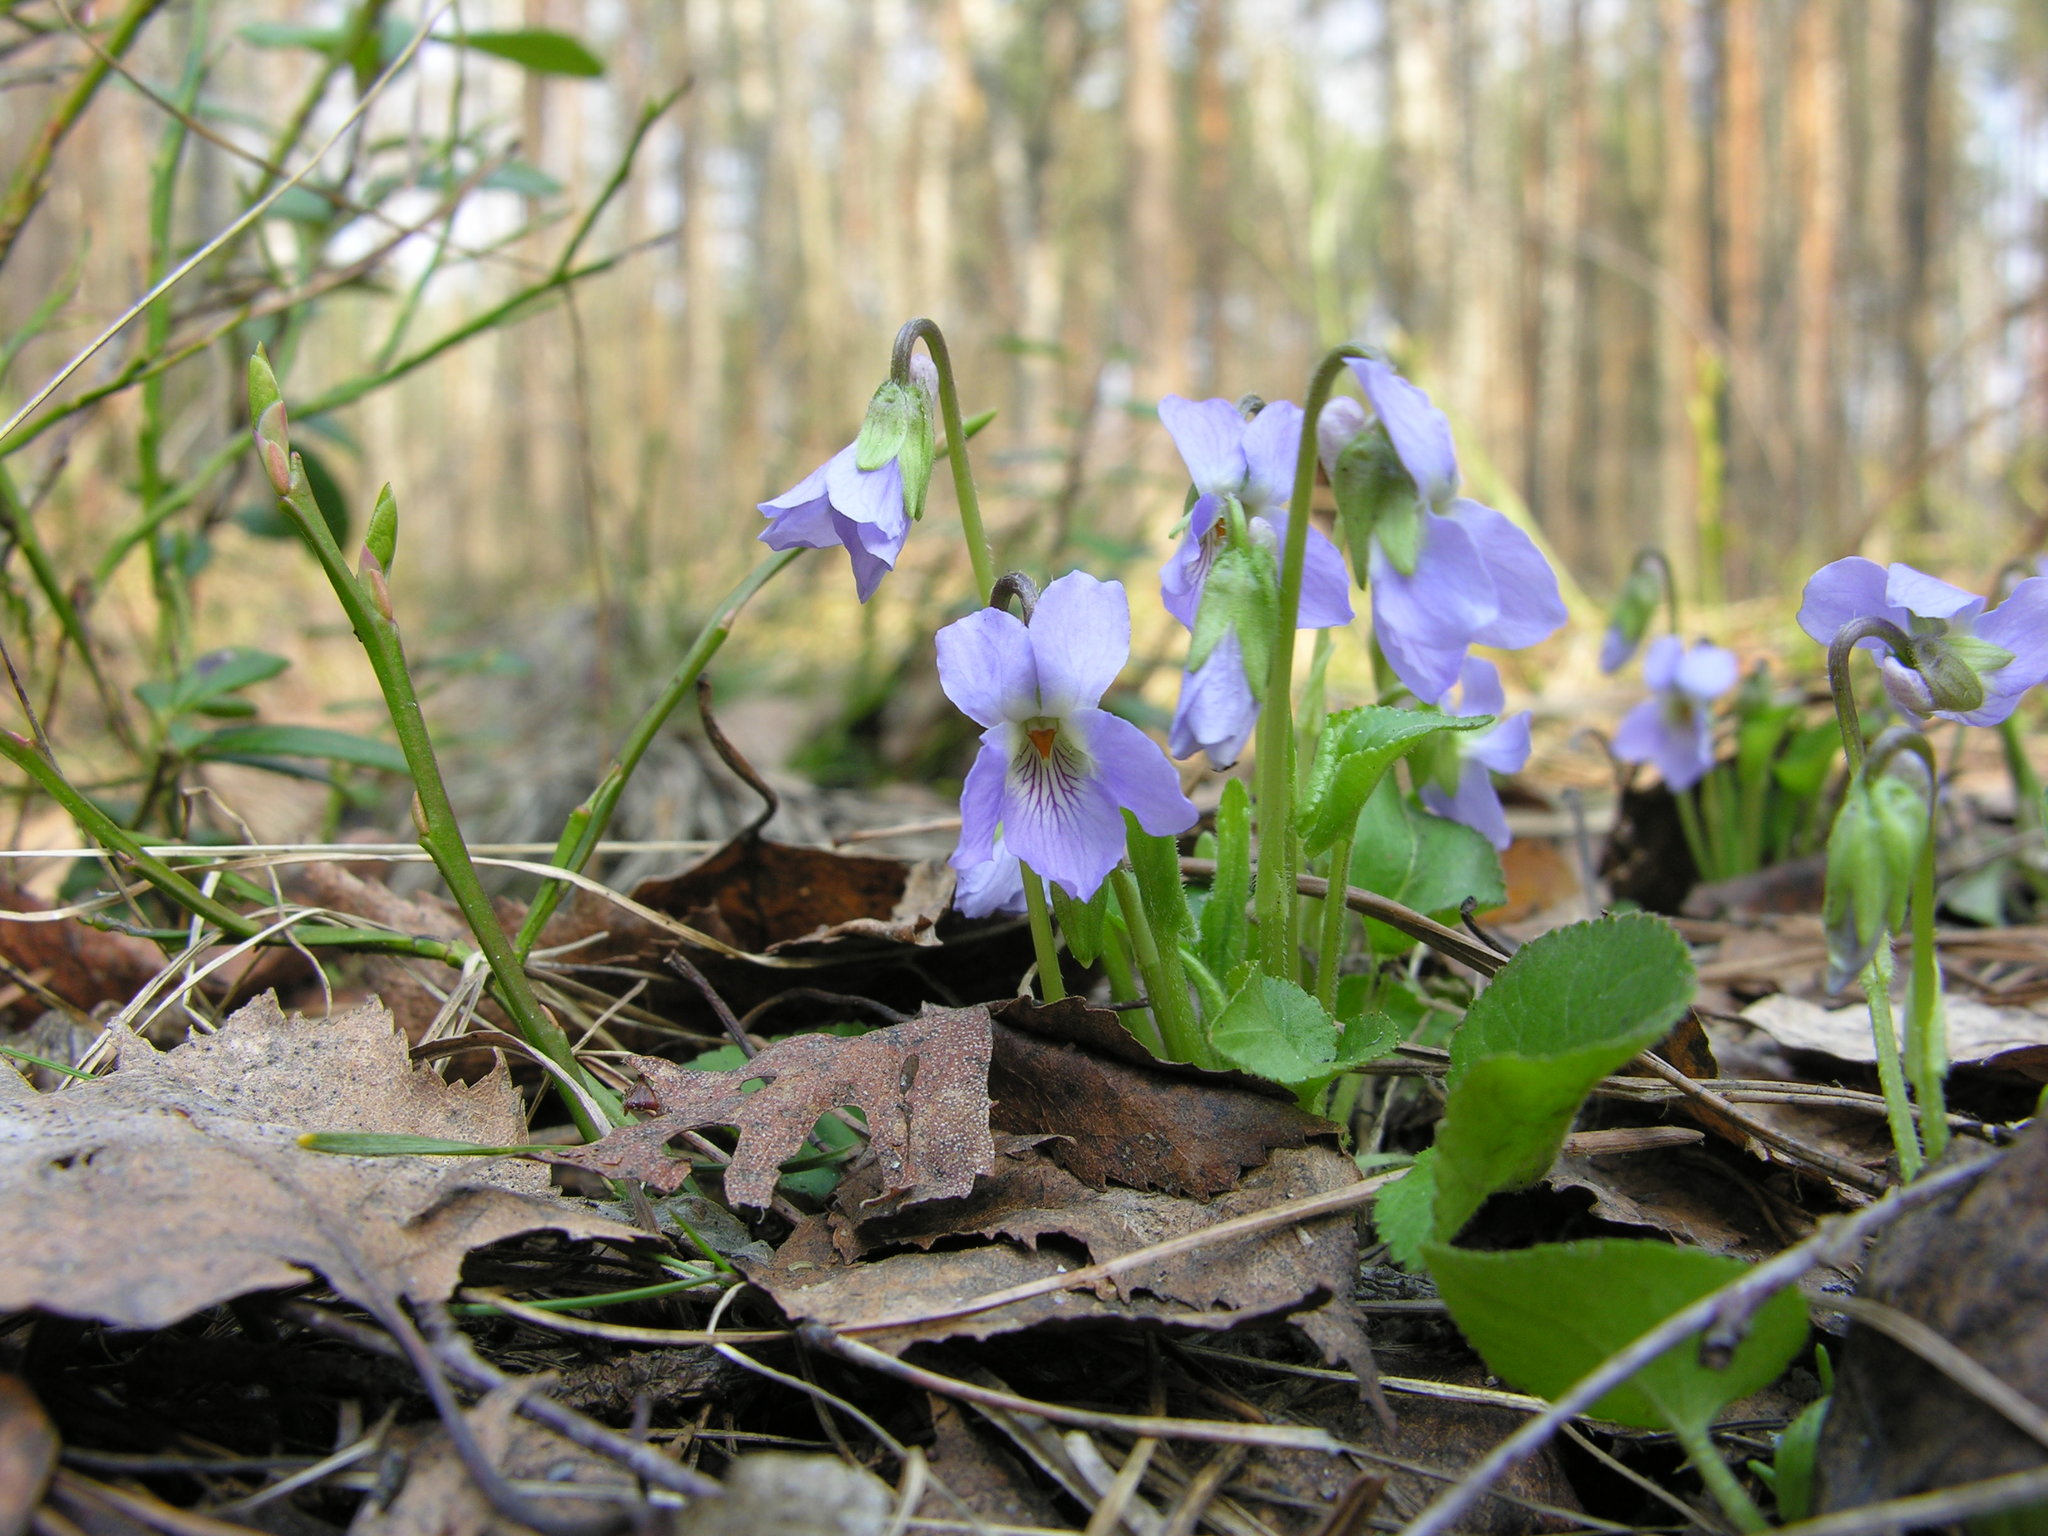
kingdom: Plantae
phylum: Tracheophyta
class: Magnoliopsida
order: Malpighiales
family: Violaceae
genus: Viola
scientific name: Viola collina
